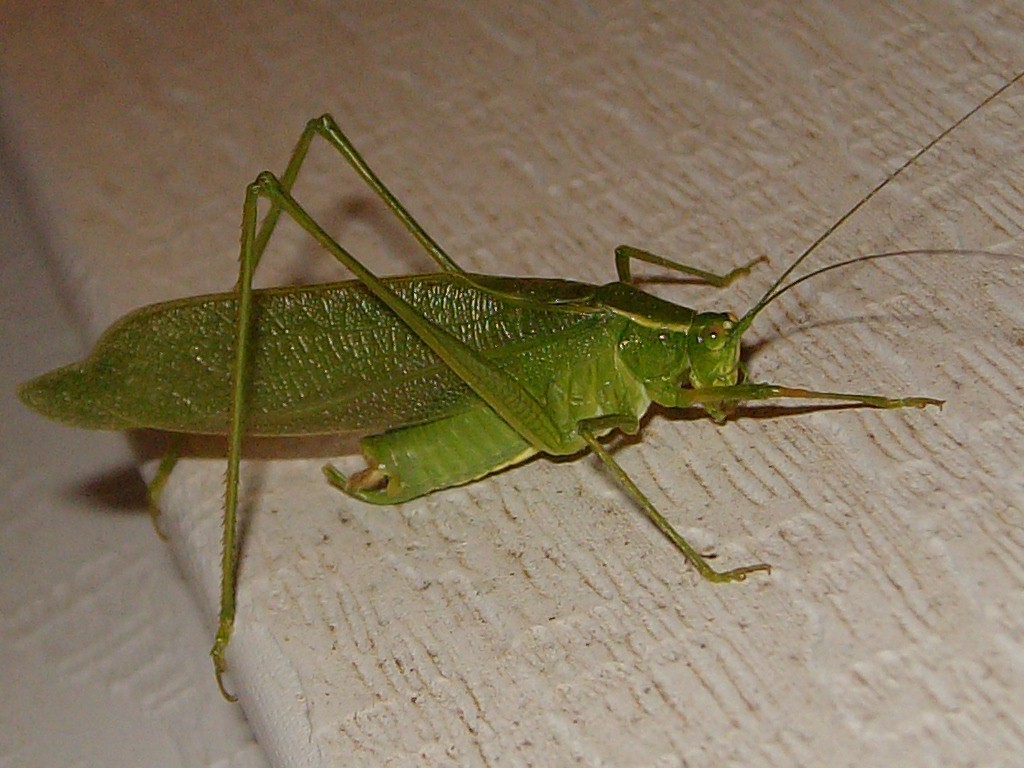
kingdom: Animalia
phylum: Arthropoda
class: Insecta
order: Orthoptera
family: Tettigoniidae
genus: Scudderia
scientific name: Scudderia septentrionalis
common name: Northern bush-katydid
